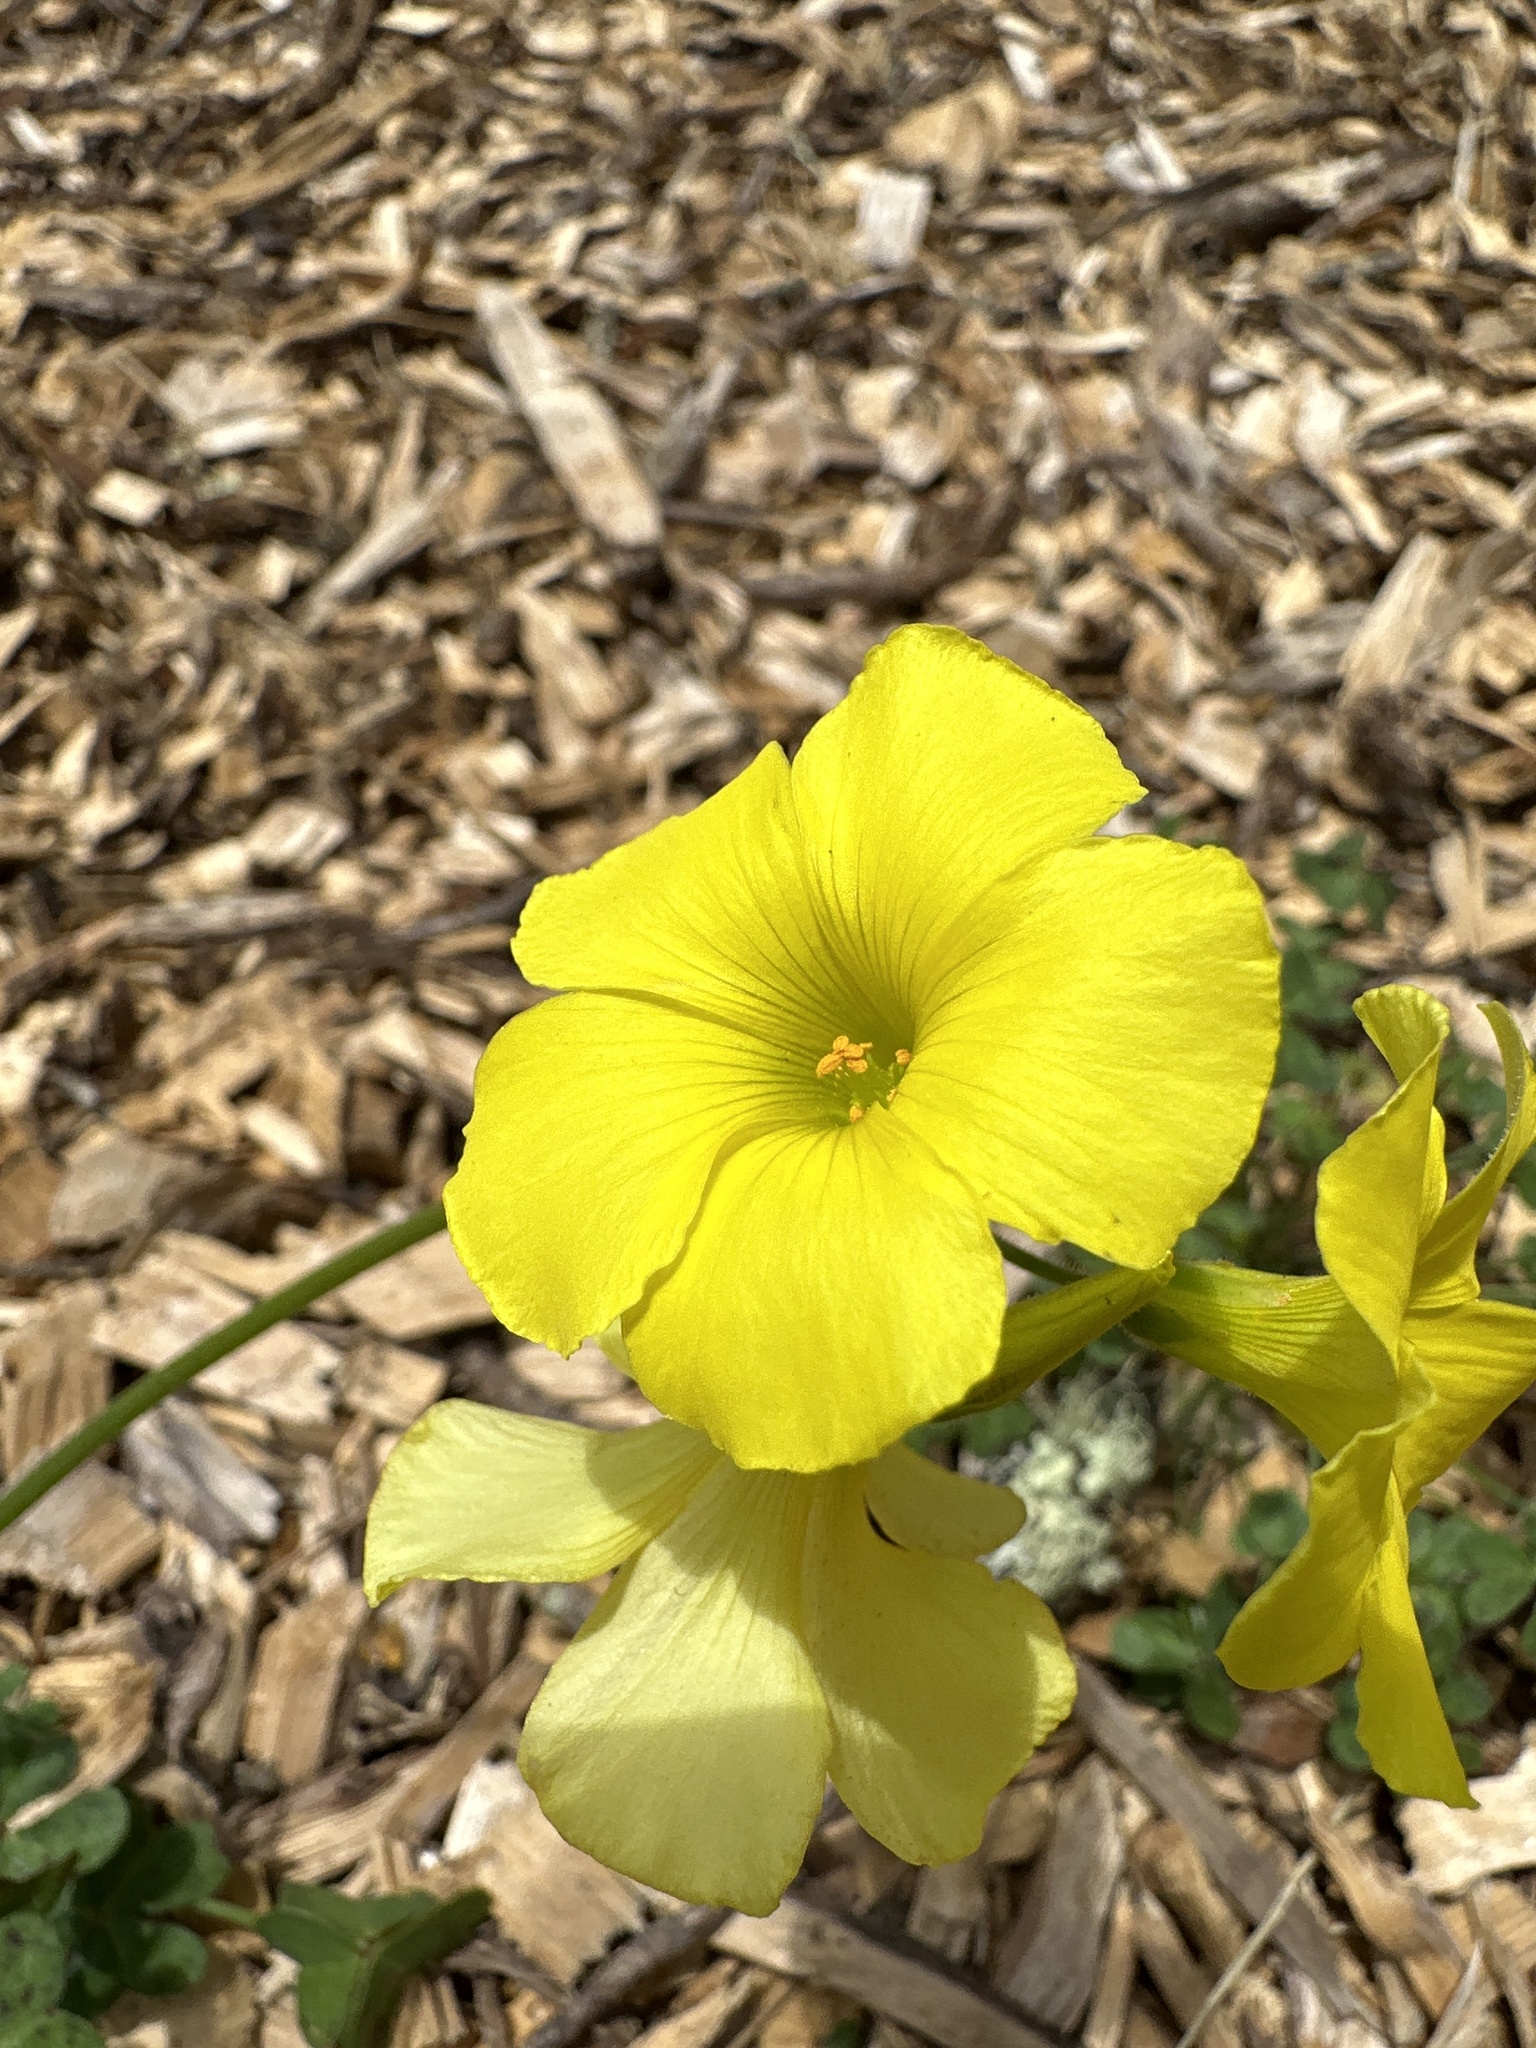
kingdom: Plantae
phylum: Tracheophyta
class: Magnoliopsida
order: Oxalidales
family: Oxalidaceae
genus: Oxalis
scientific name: Oxalis pes-caprae
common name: Bermuda-buttercup
